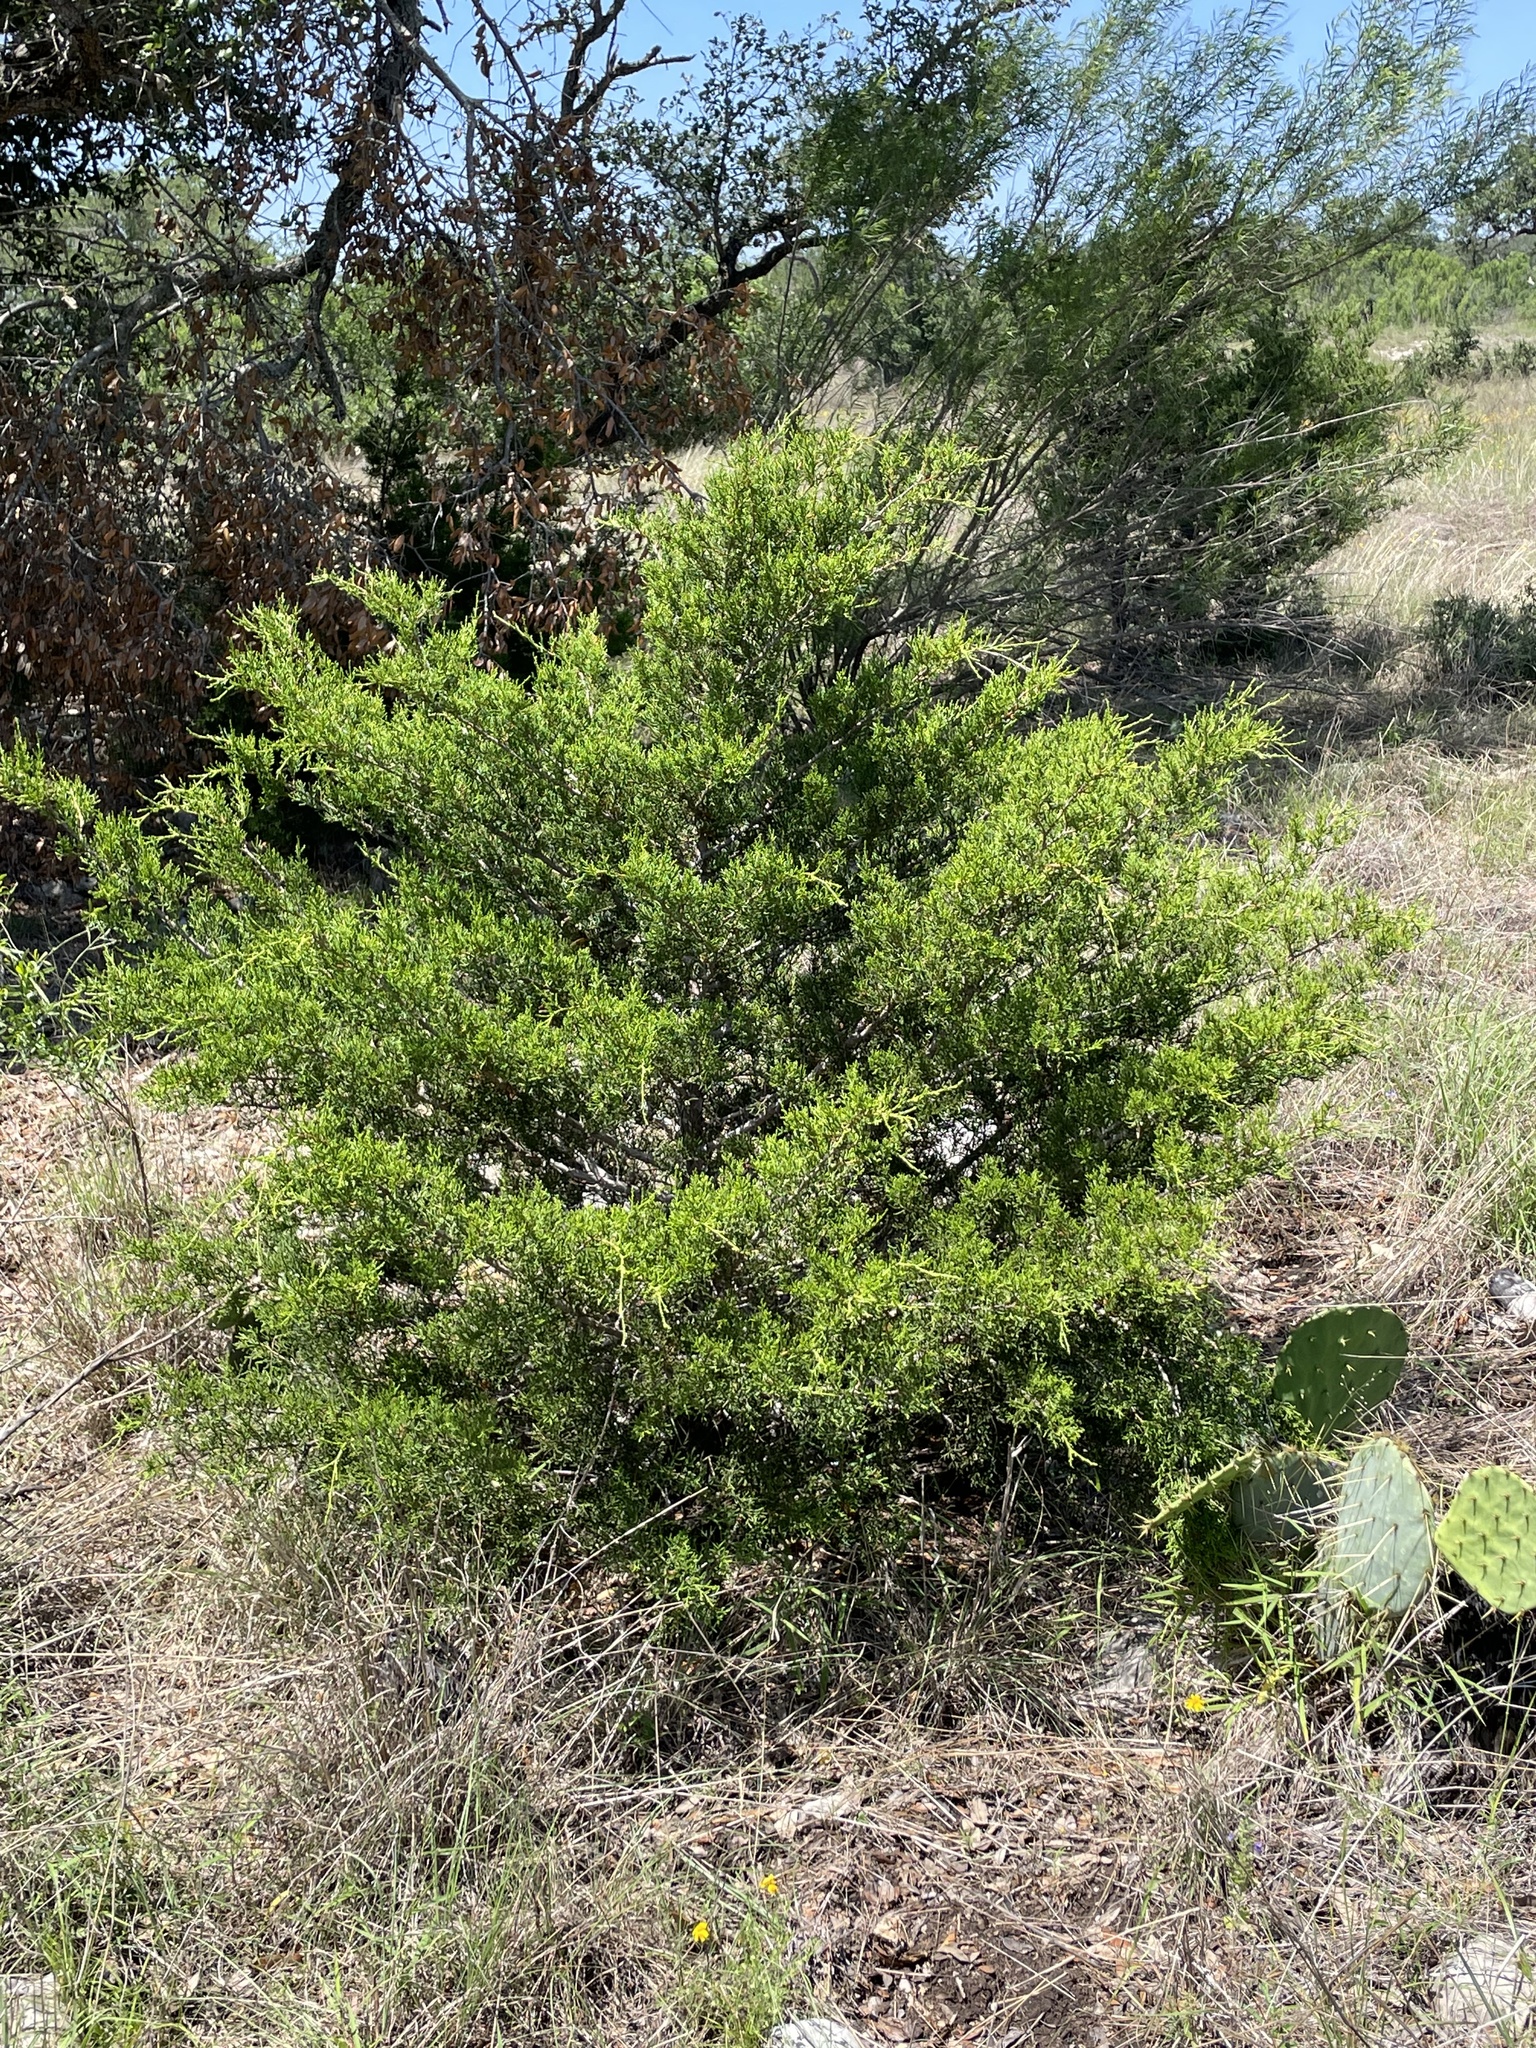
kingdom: Plantae
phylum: Tracheophyta
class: Pinopsida
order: Pinales
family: Cupressaceae
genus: Juniperus
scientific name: Juniperus ashei
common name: Mexican juniper
